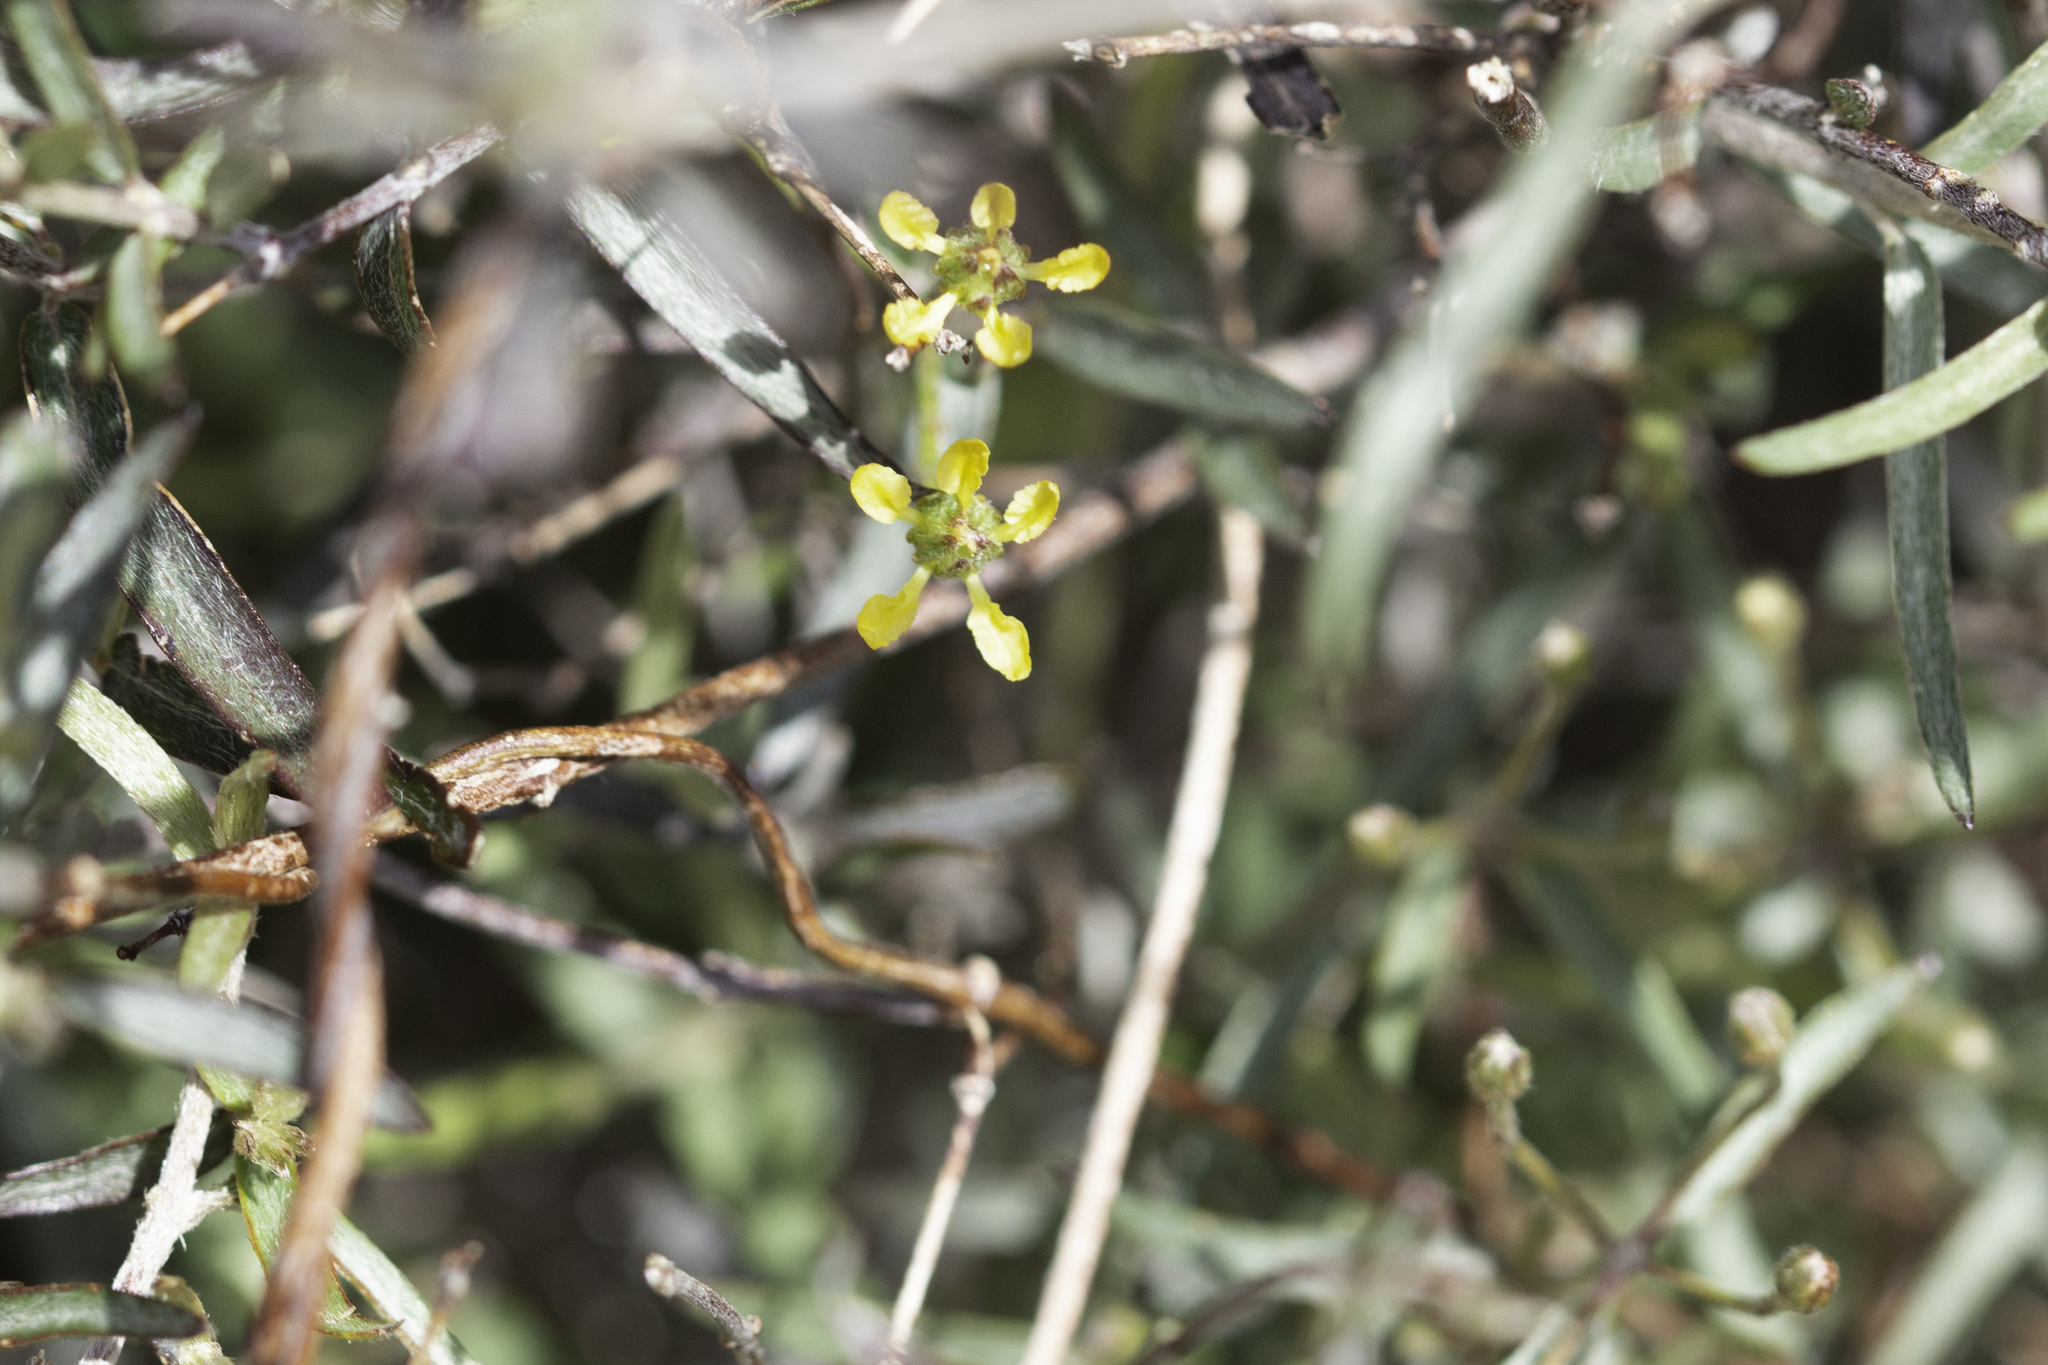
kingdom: Plantae
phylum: Tracheophyta
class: Magnoliopsida
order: Malpighiales
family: Malpighiaceae
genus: Cottsia
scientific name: Cottsia gracilis
